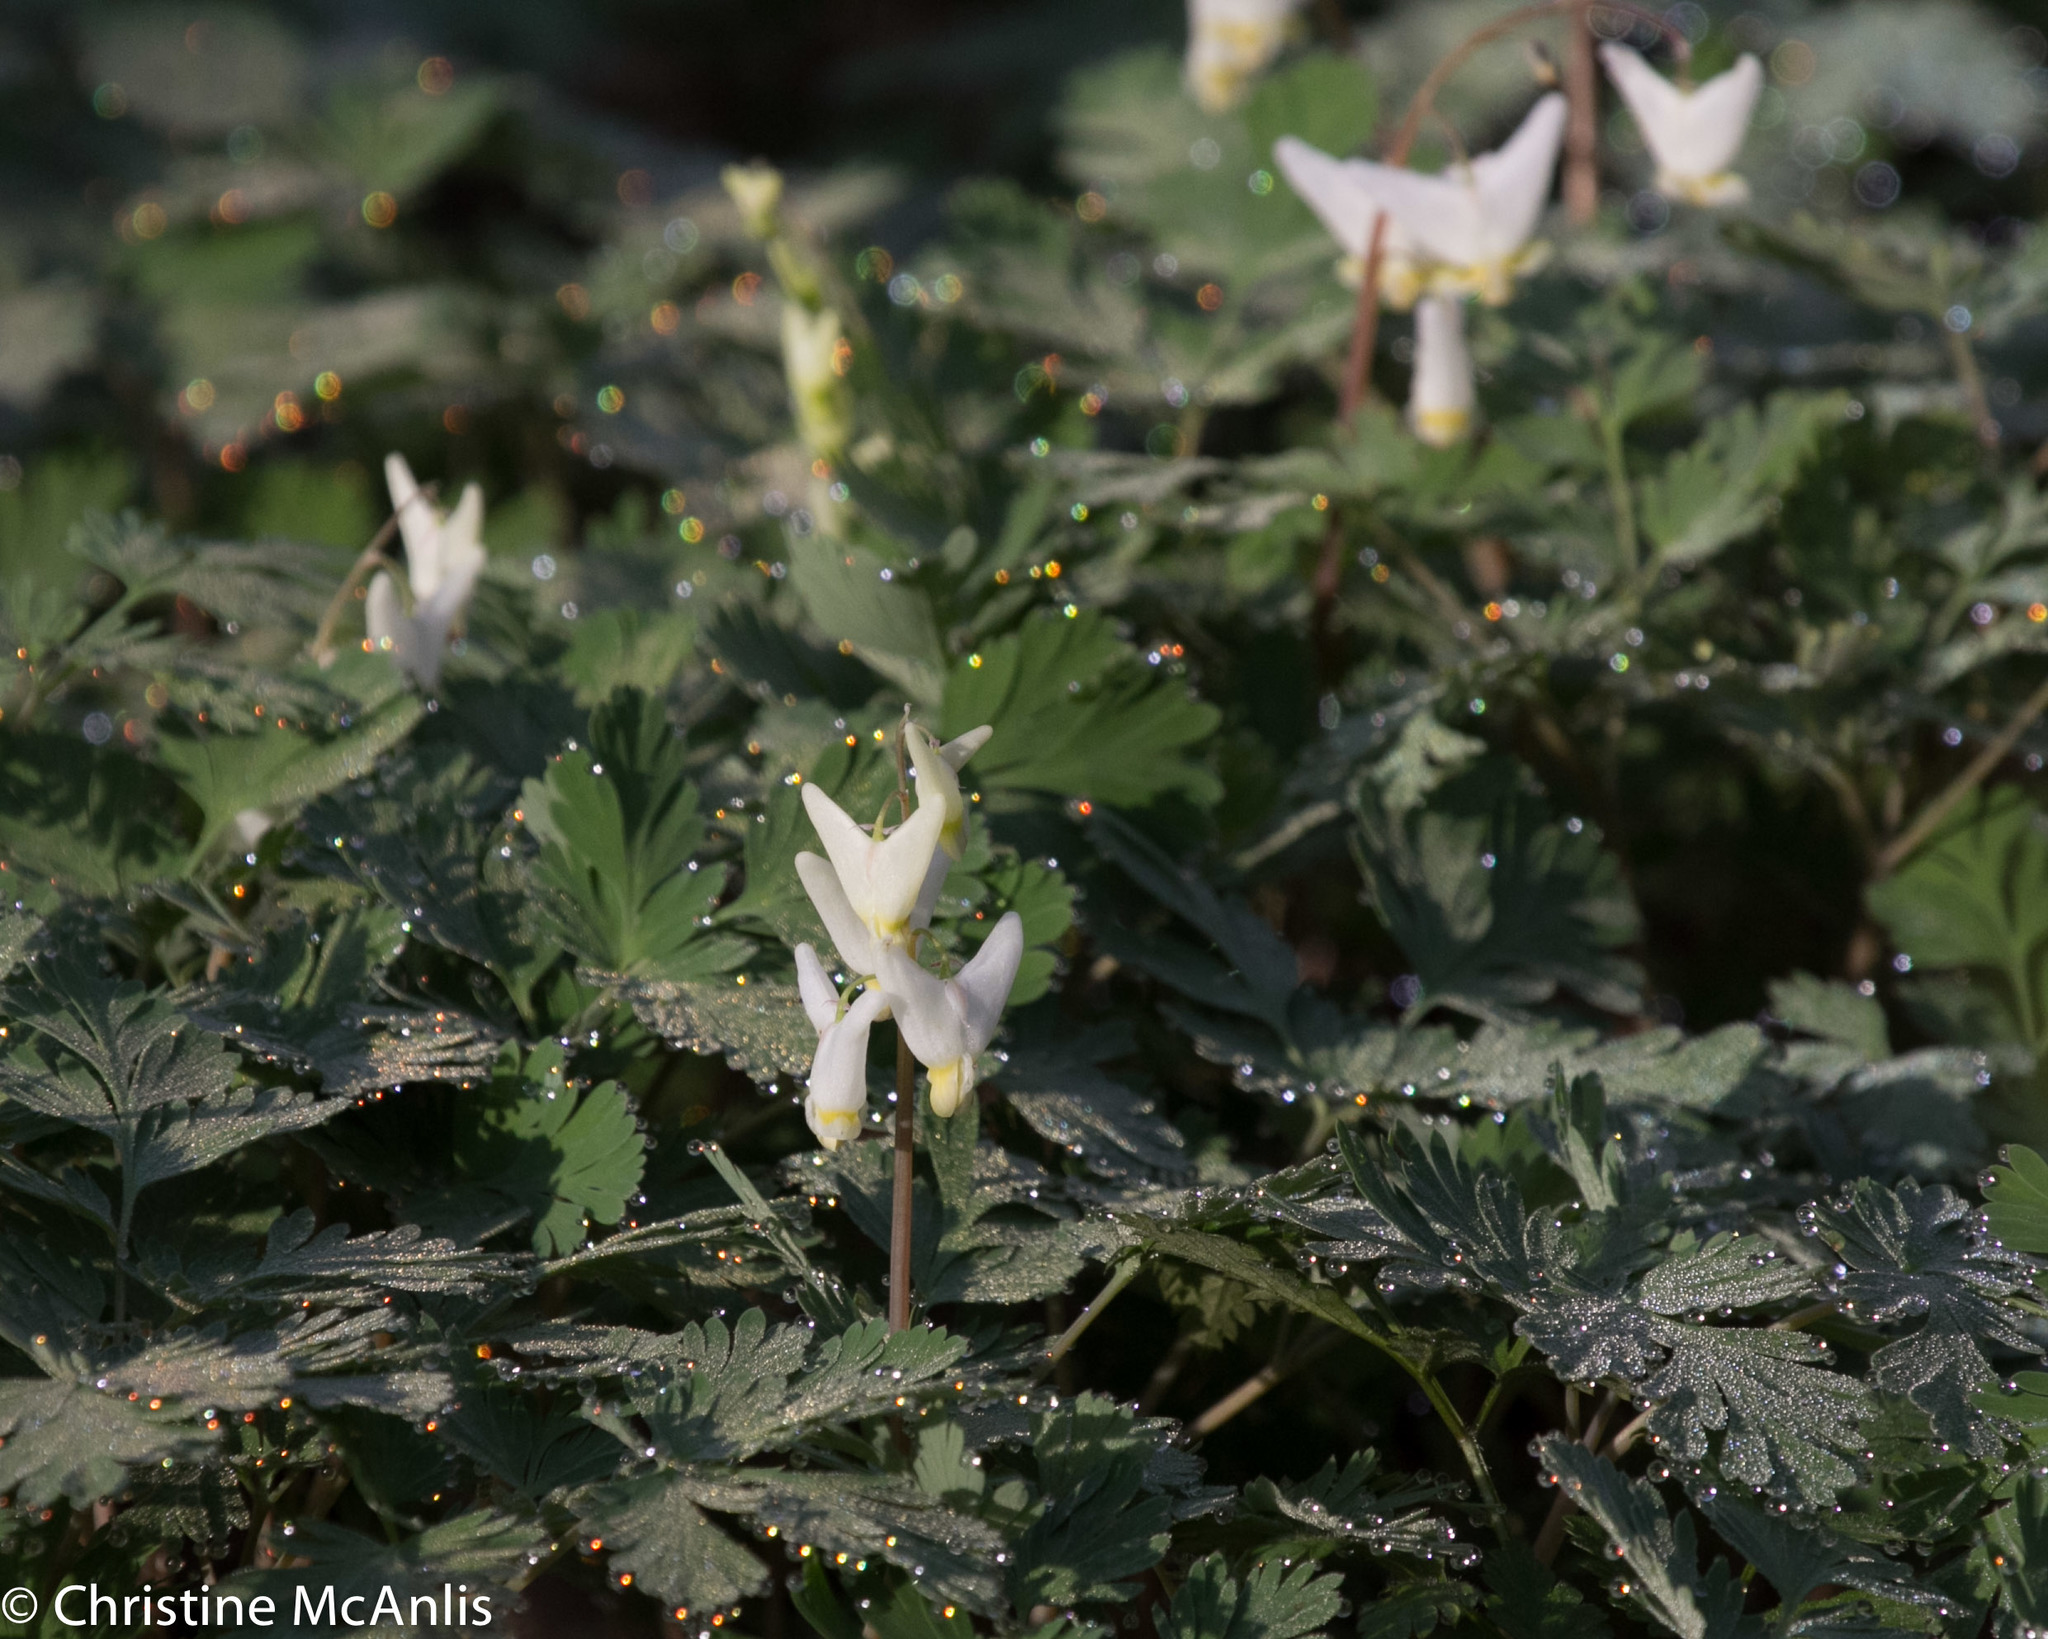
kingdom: Plantae
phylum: Tracheophyta
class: Magnoliopsida
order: Ranunculales
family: Papaveraceae
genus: Dicentra
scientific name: Dicentra cucullaria
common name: Dutchman's breeches
